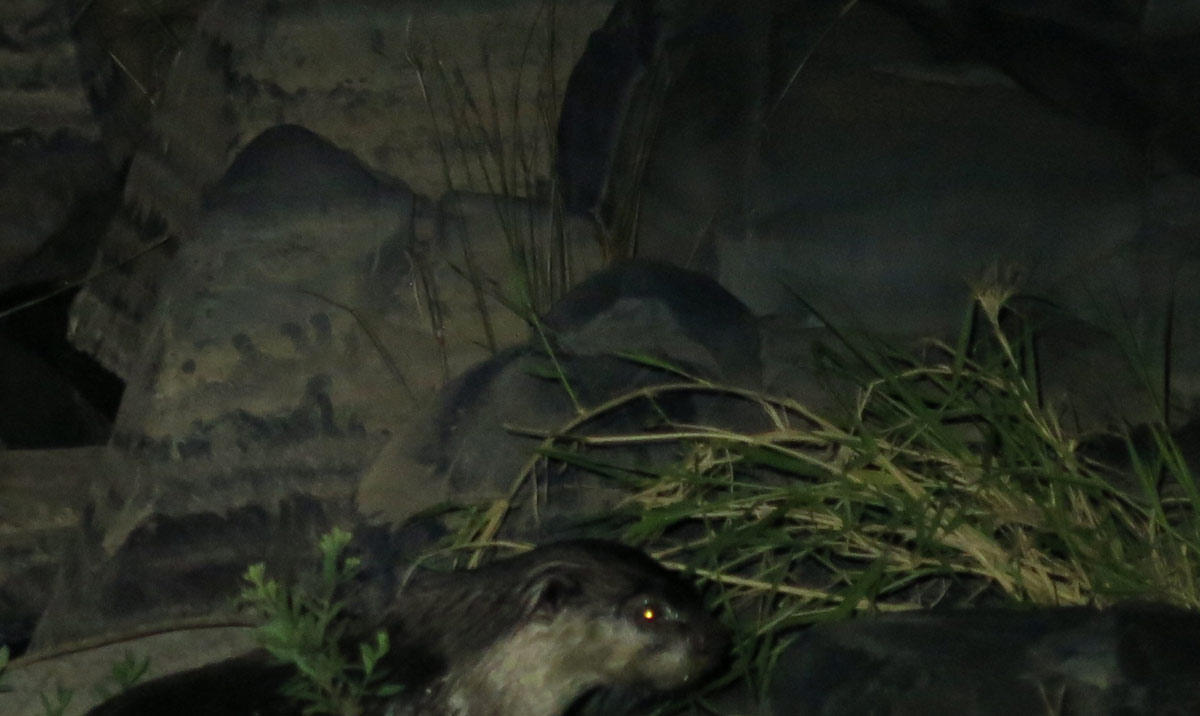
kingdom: Animalia
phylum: Chordata
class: Mammalia
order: Carnivora
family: Mustelidae
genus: Aonyx
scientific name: Aonyx capensis
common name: African clawless otter
